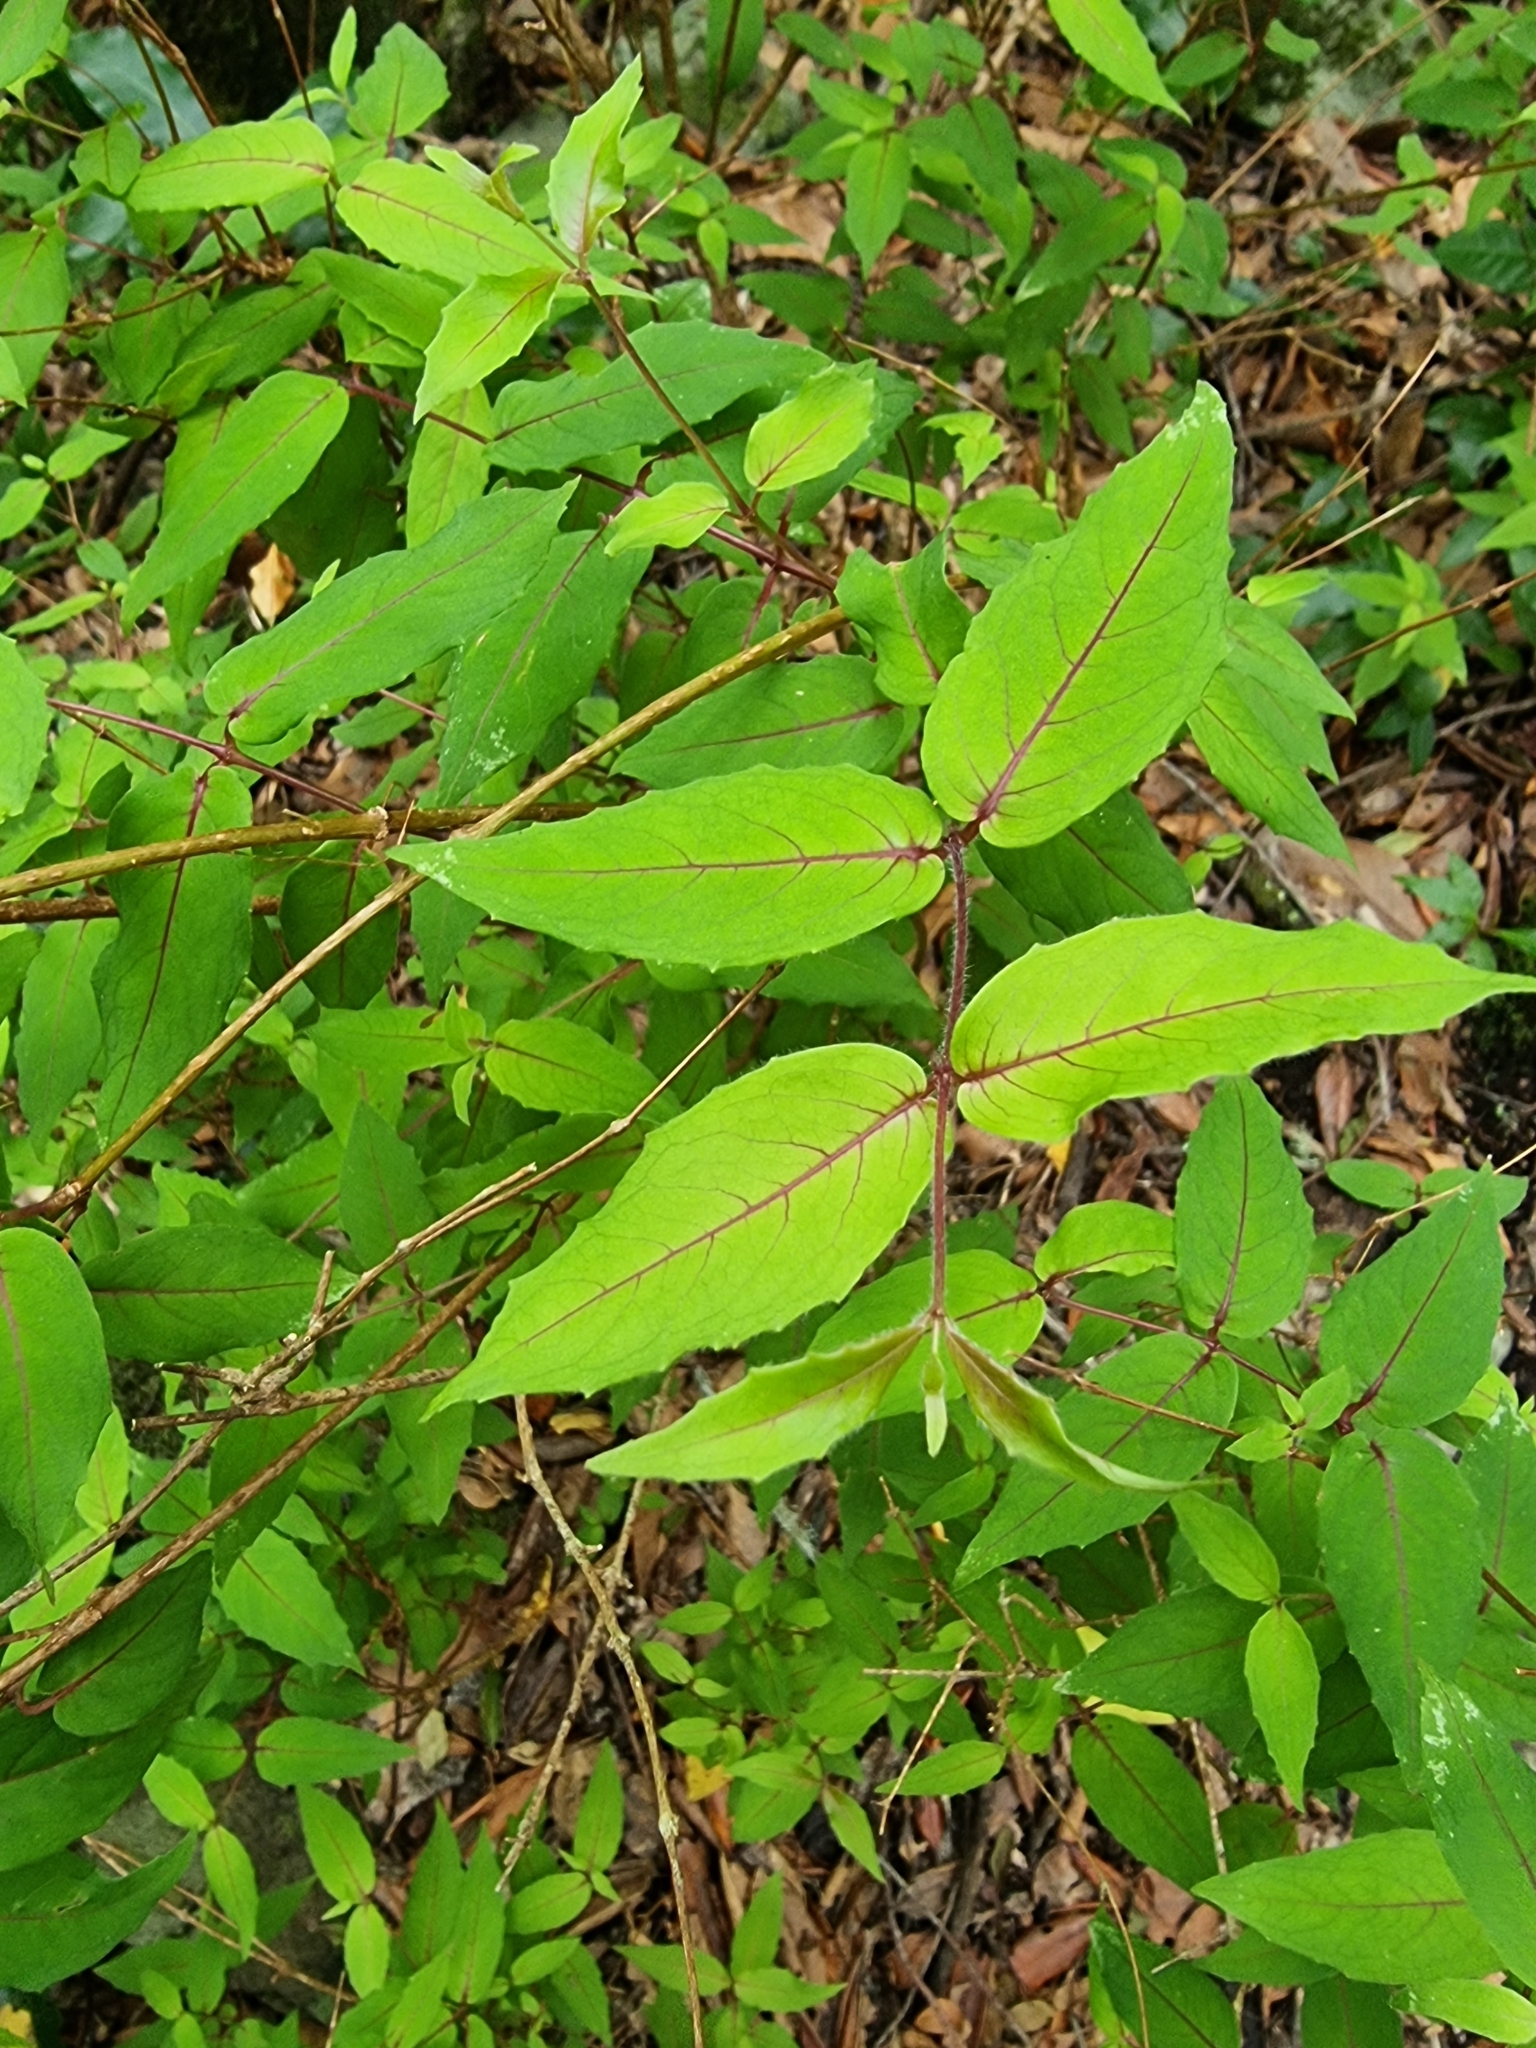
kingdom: Plantae
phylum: Tracheophyta
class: Magnoliopsida
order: Myrtales
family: Onagraceae
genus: Fuchsia
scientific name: Fuchsia magellanica
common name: Hardy fuchsia
